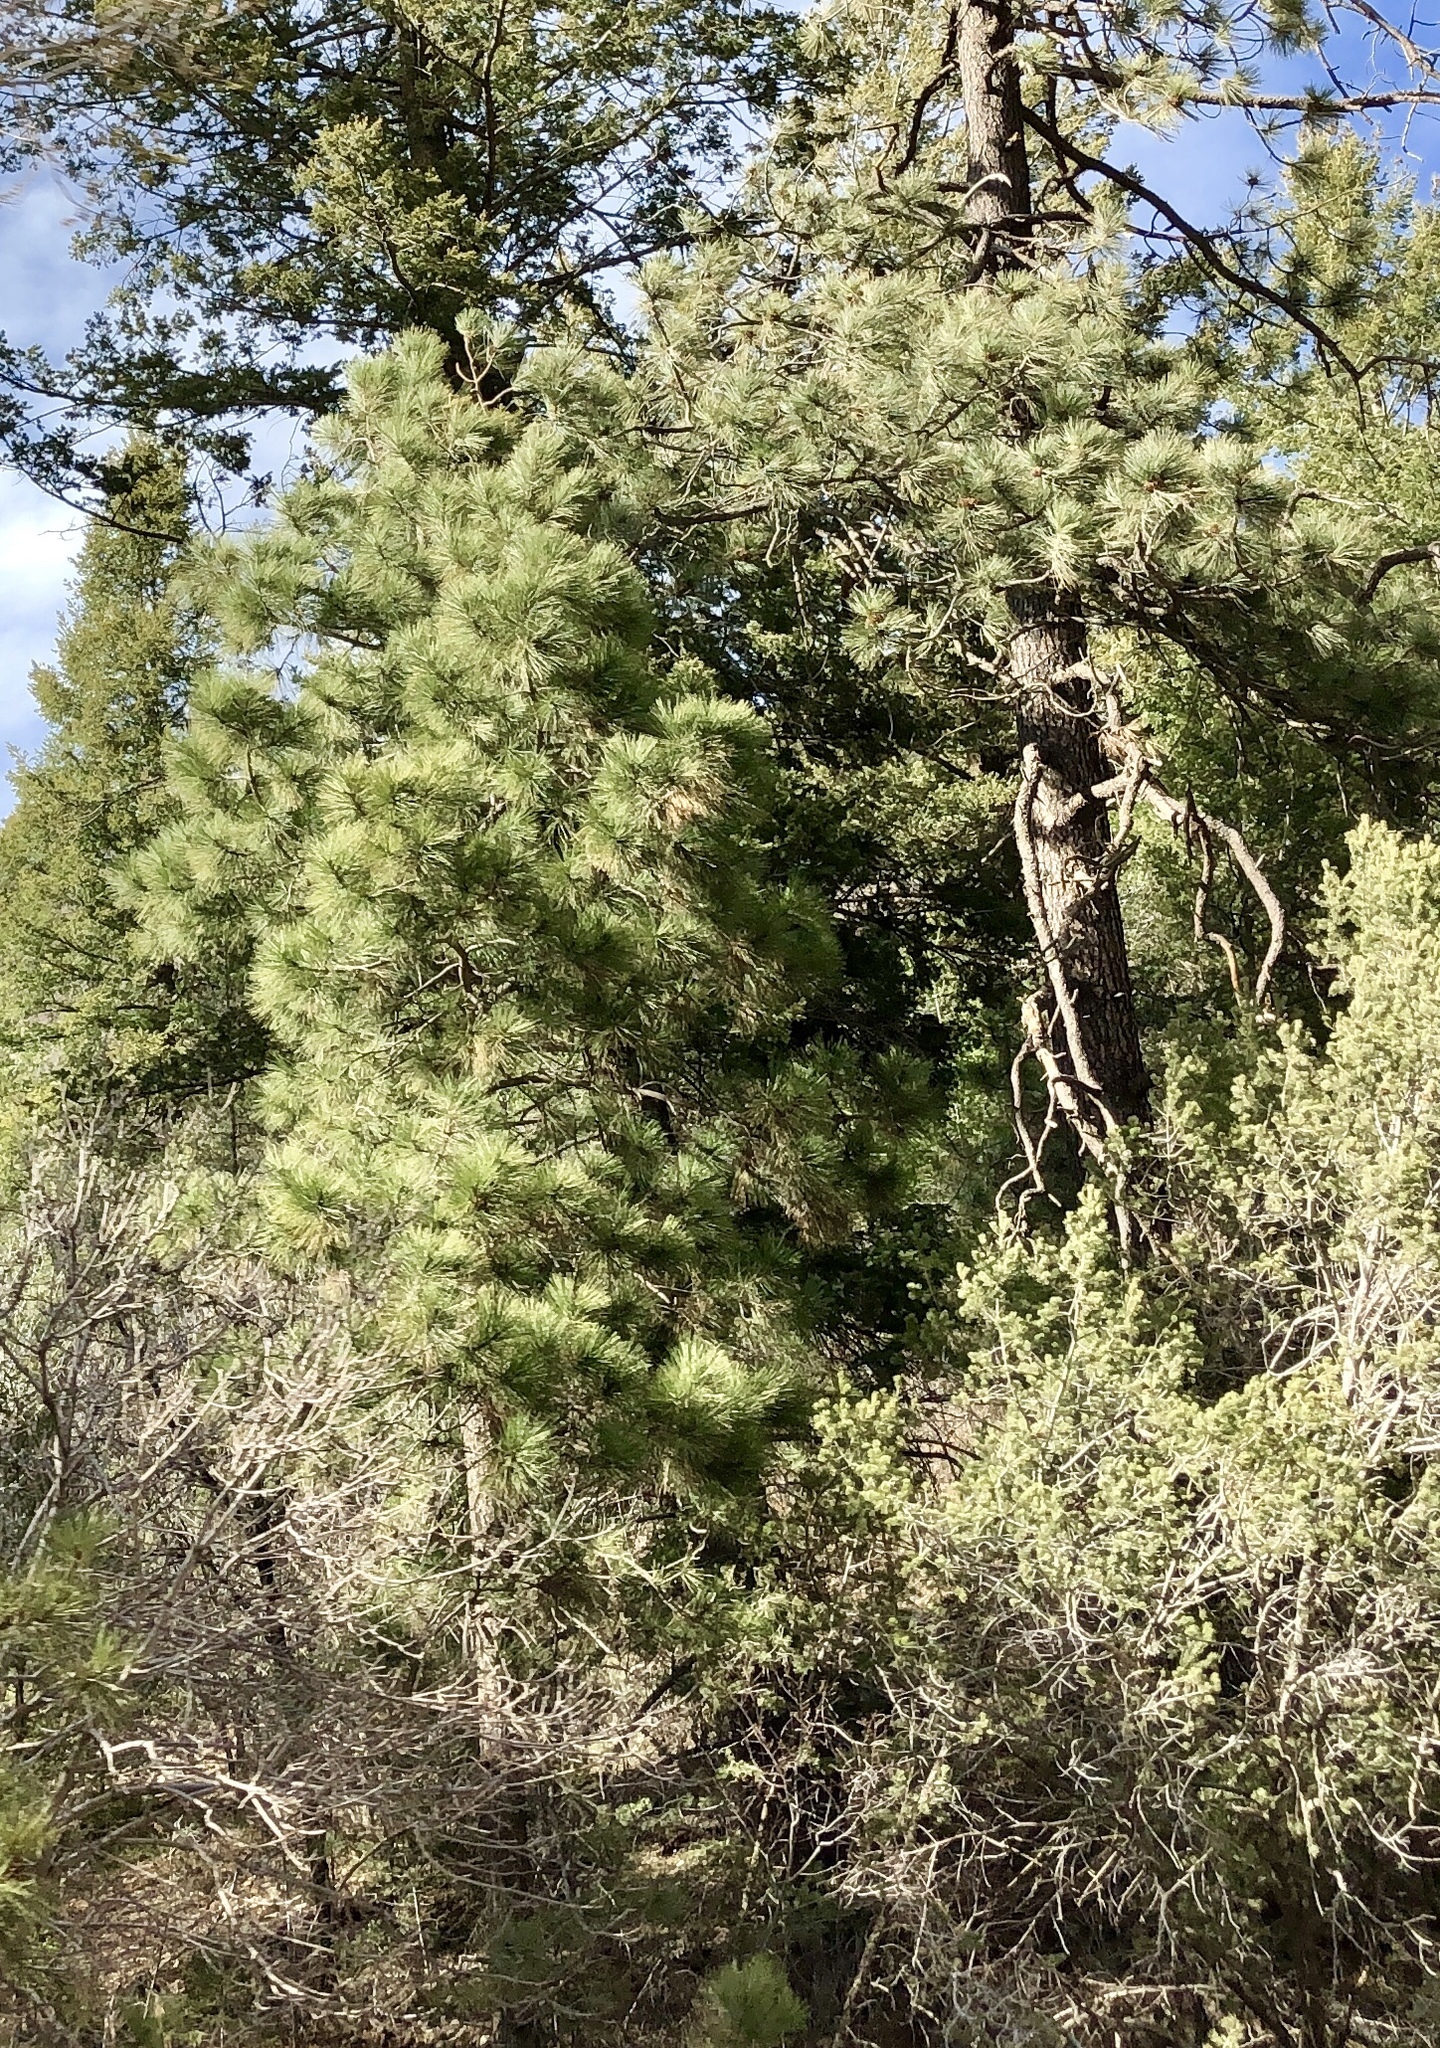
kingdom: Plantae
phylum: Tracheophyta
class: Pinopsida
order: Pinales
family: Pinaceae
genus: Pinus
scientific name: Pinus ponderosa
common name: Western yellow-pine
